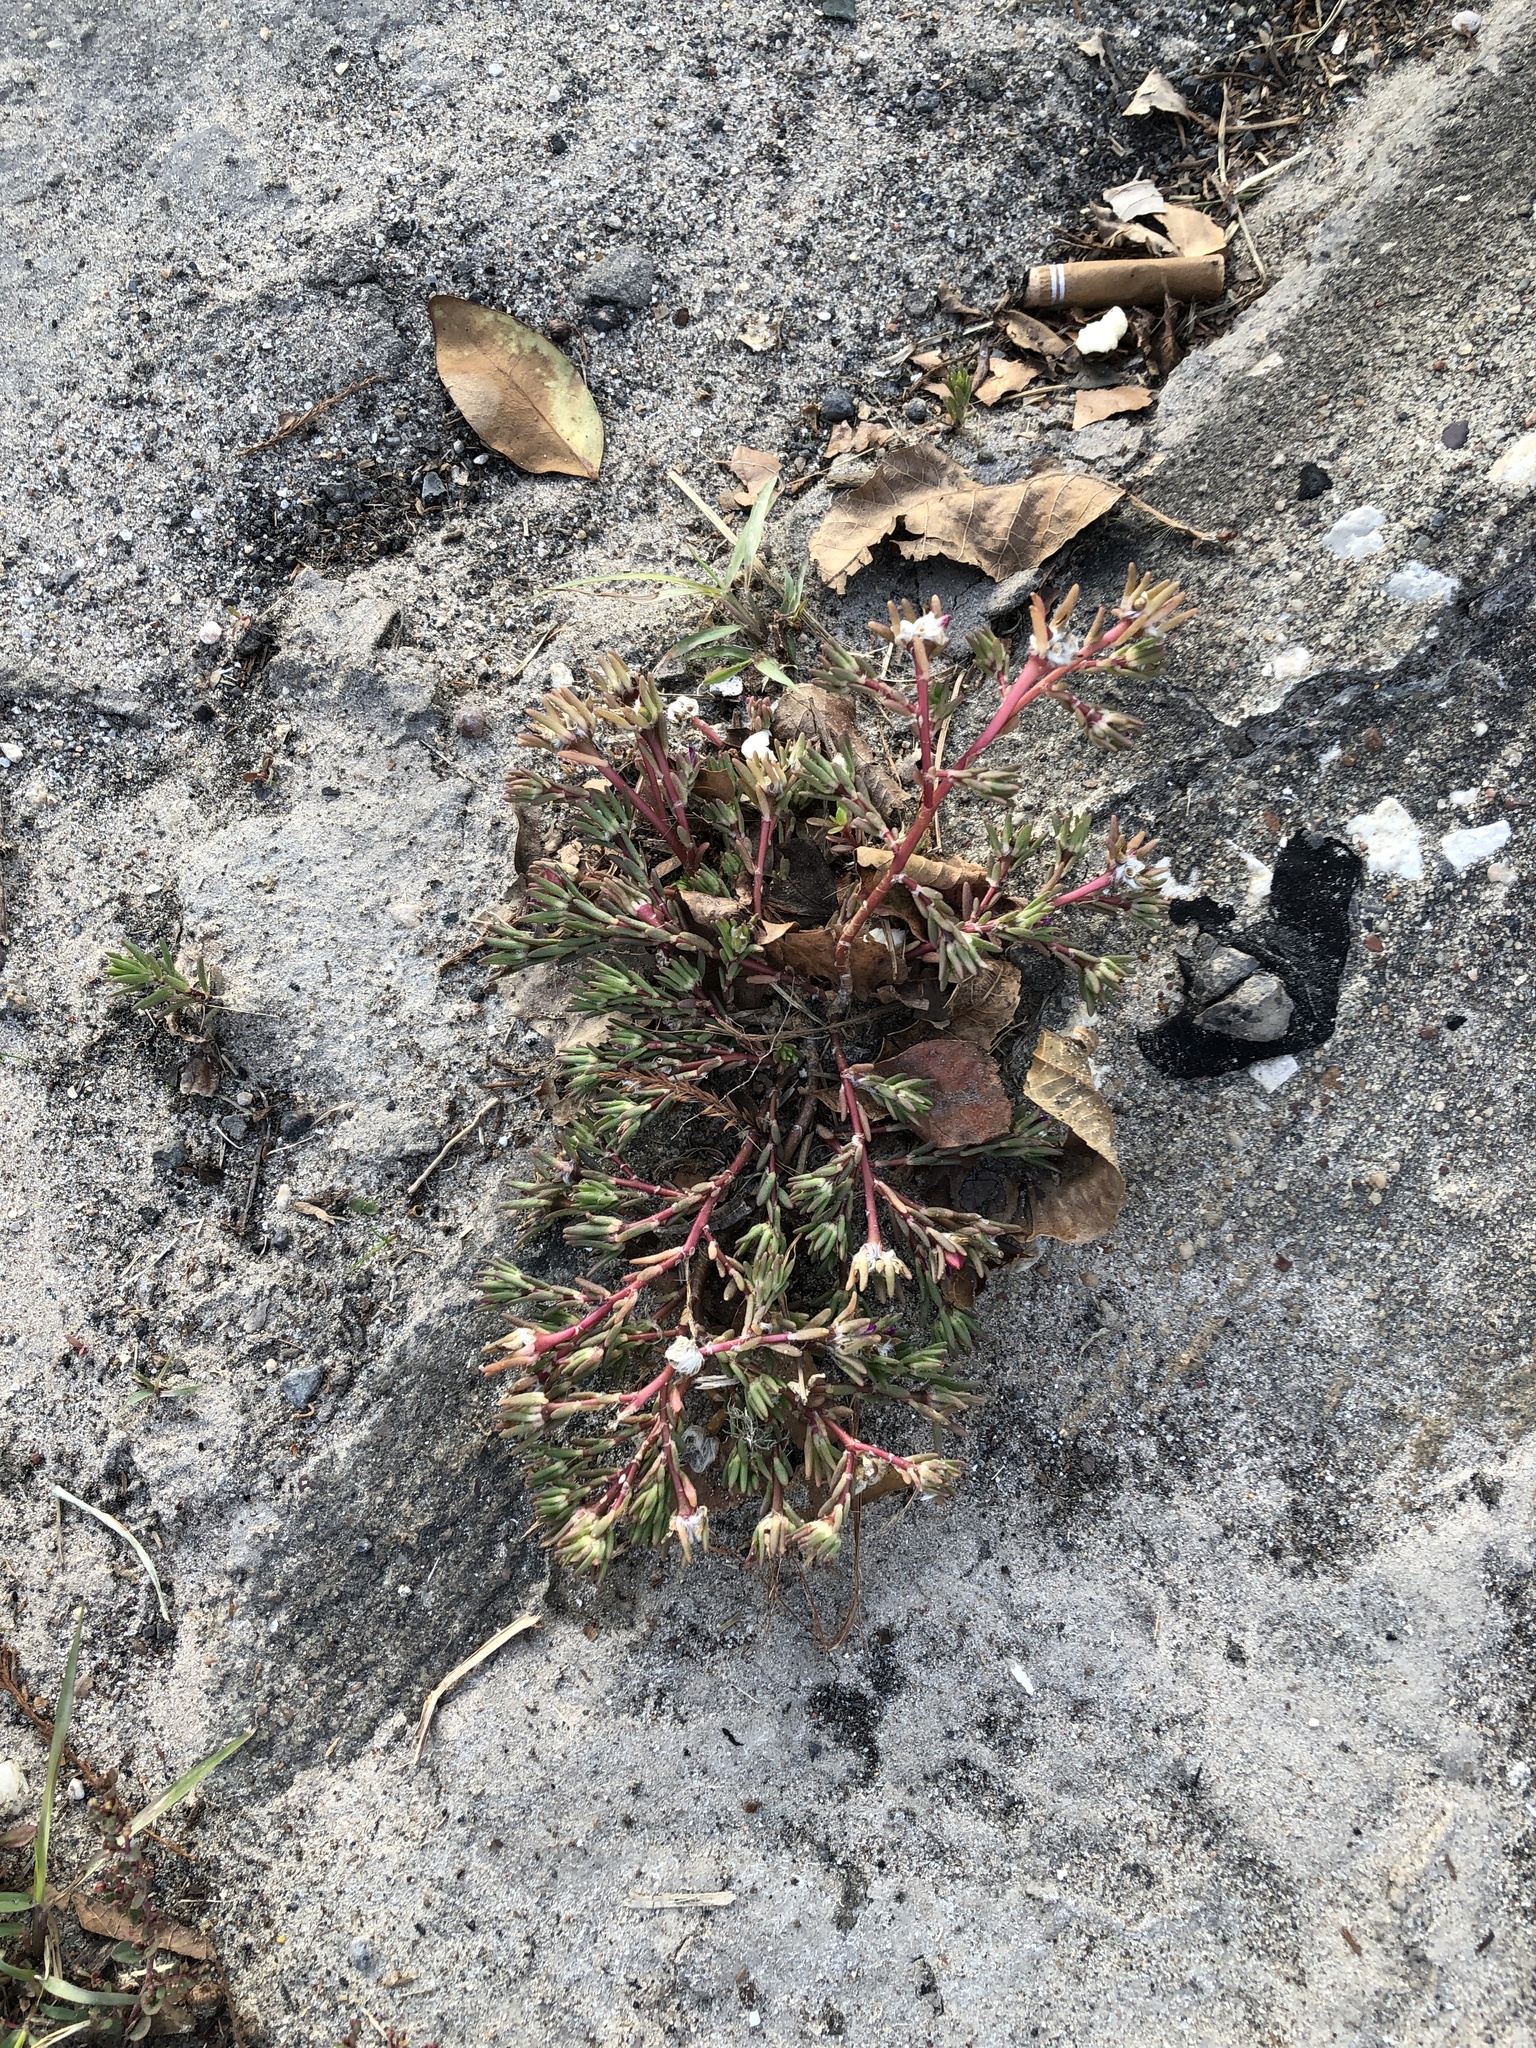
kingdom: Plantae
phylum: Tracheophyta
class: Magnoliopsida
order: Caryophyllales
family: Portulacaceae
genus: Portulaca
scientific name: Portulaca pilosa
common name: Kiss me quick
